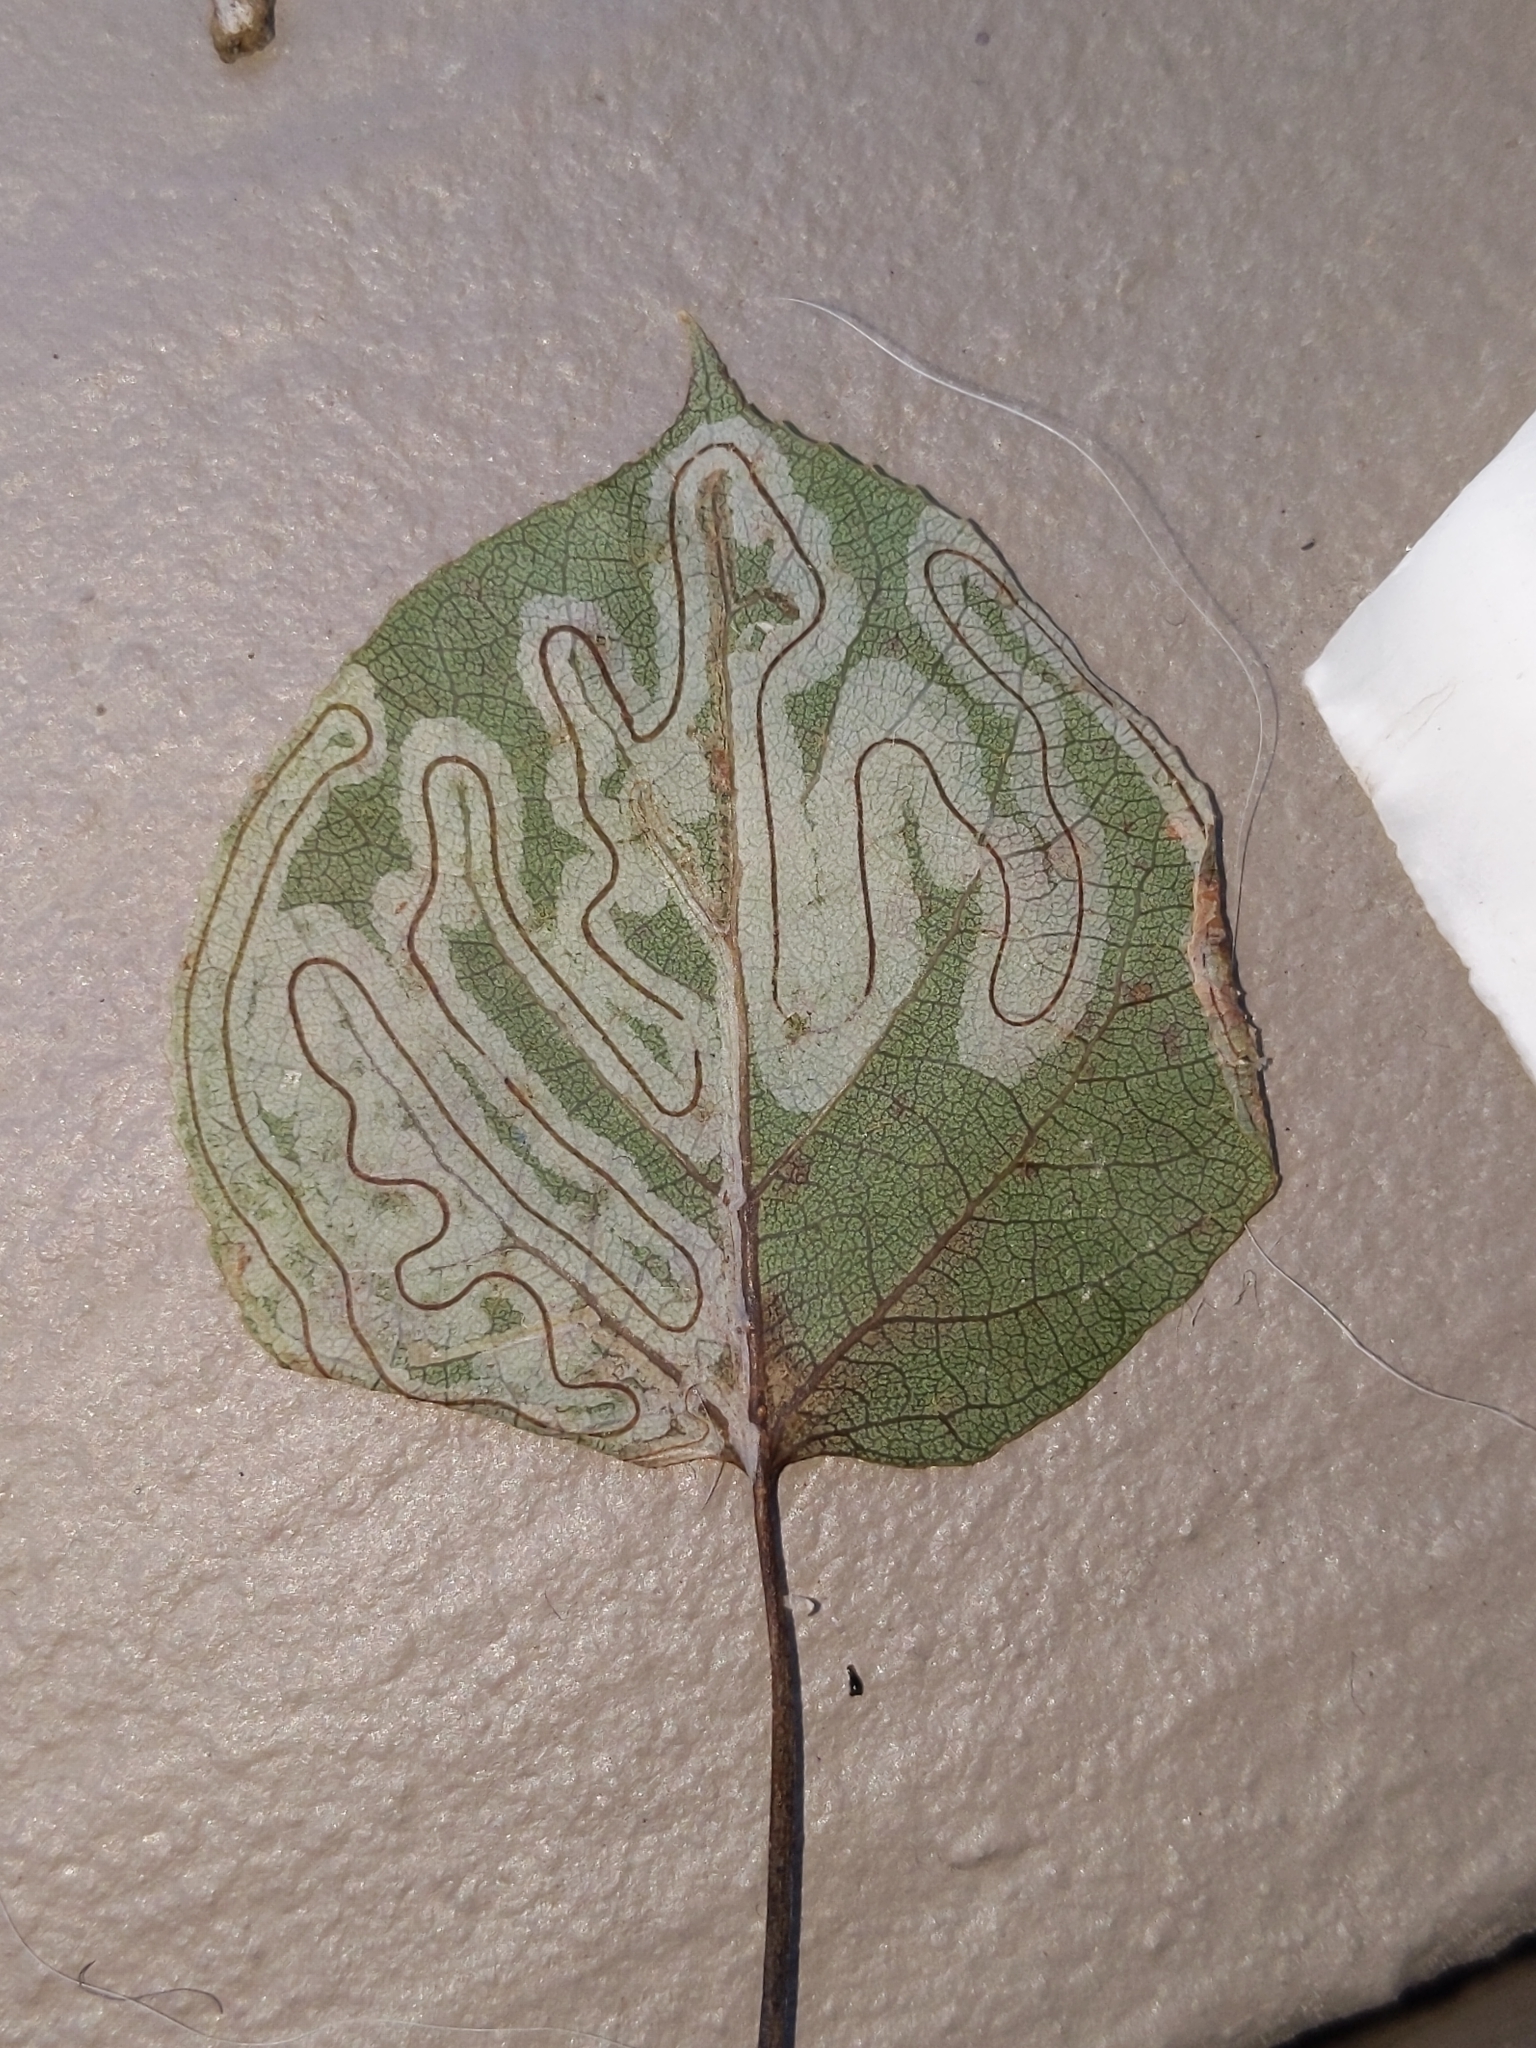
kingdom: Animalia
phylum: Arthropoda
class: Insecta
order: Lepidoptera
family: Gracillariidae
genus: Phyllocnistis
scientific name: Phyllocnistis populiella
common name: Aspen serpentine leafminer moth
